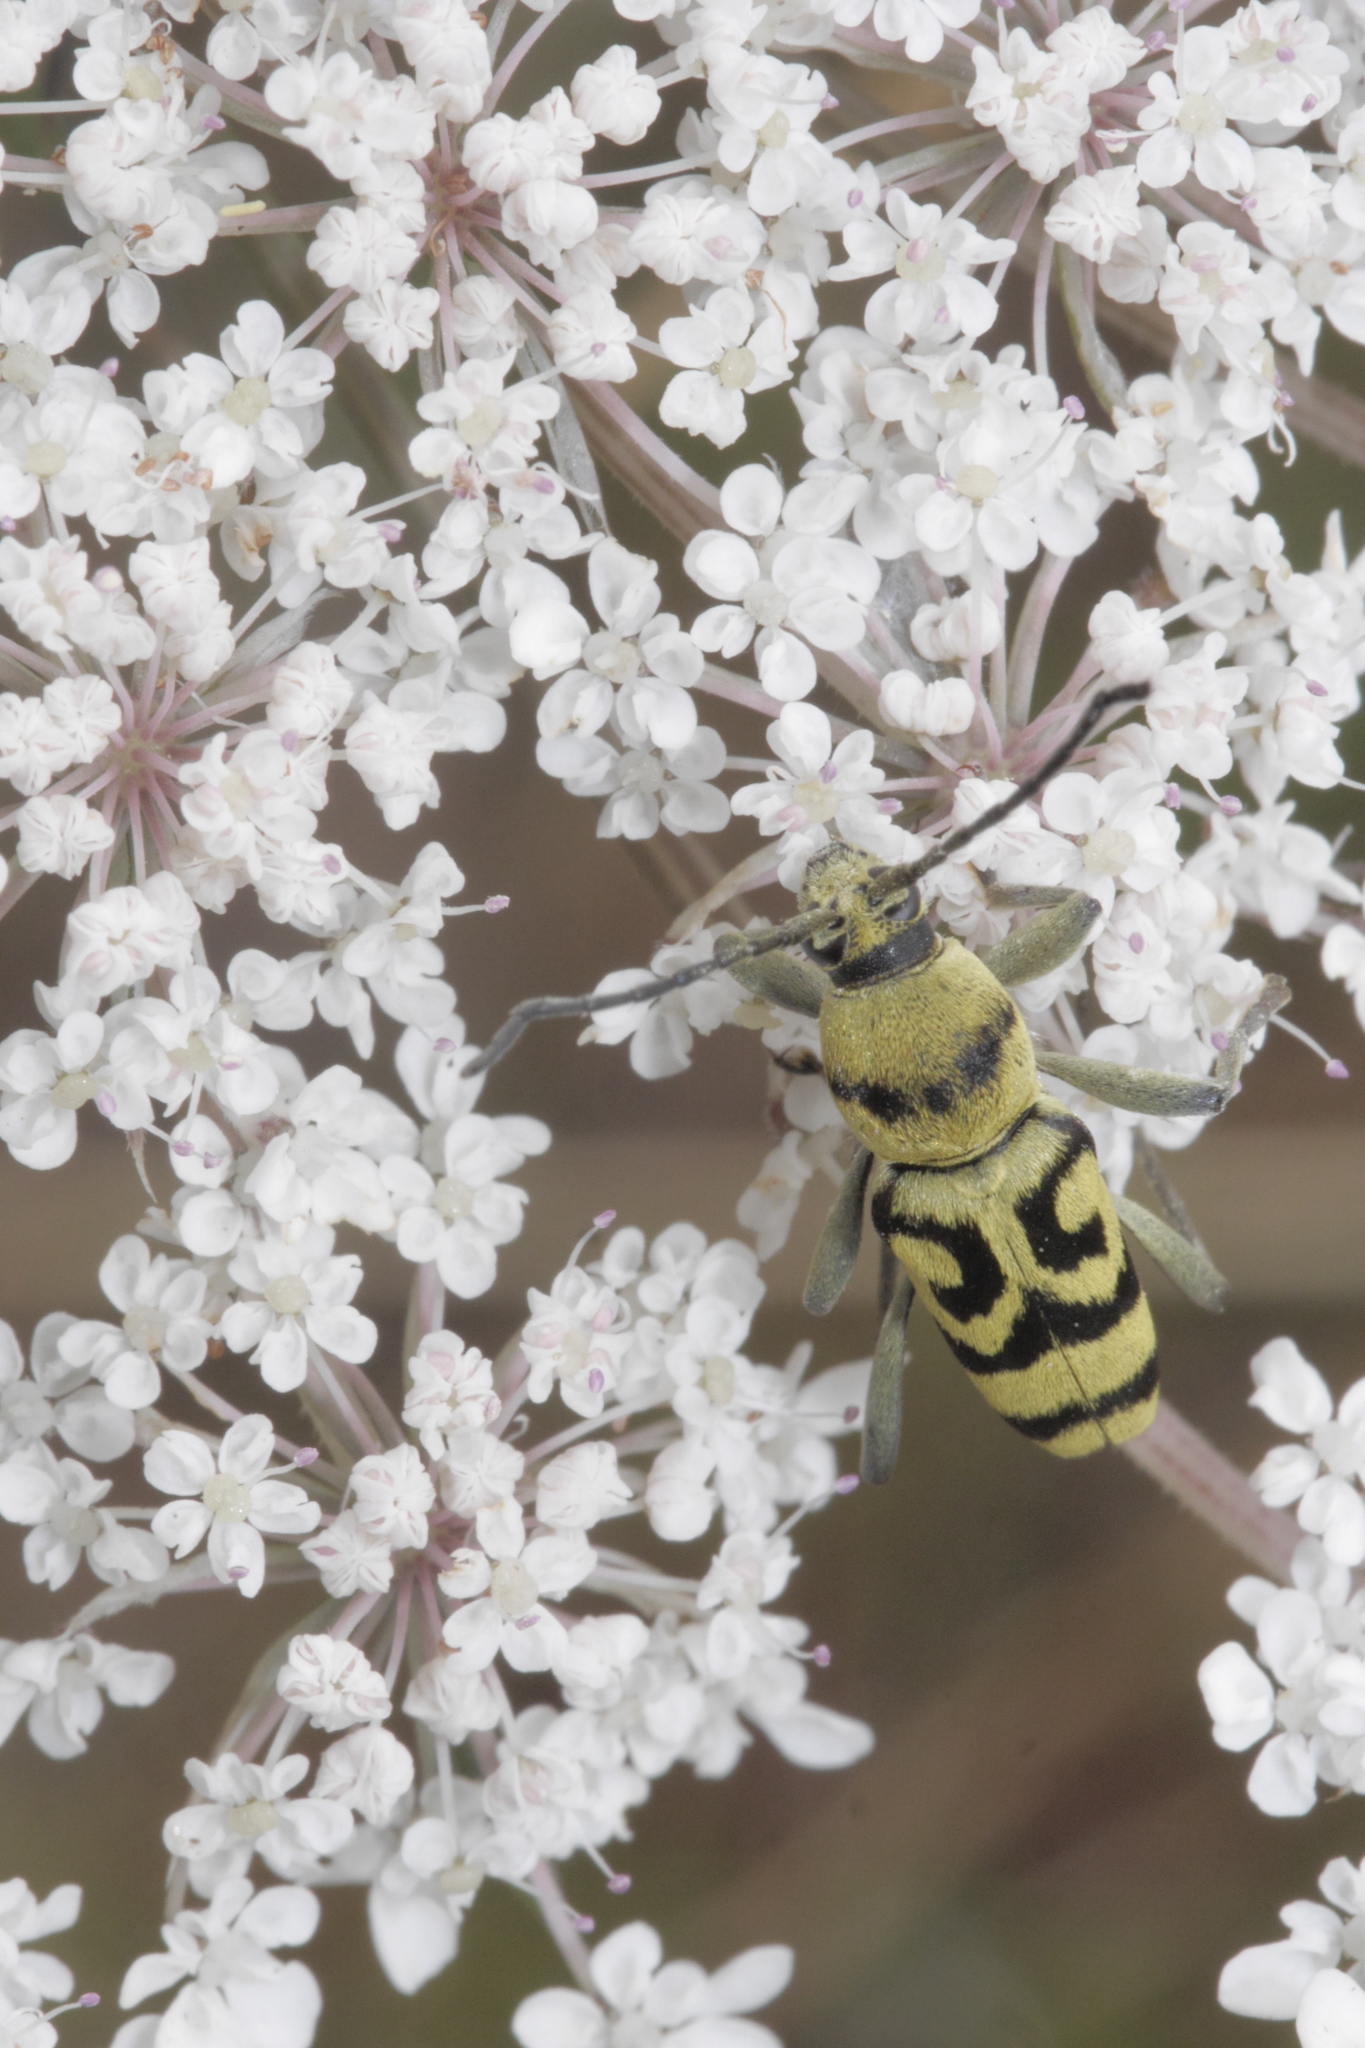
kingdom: Animalia
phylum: Arthropoda
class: Insecta
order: Coleoptera
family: Cerambycidae
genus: Chlorophorus
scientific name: Chlorophorus varius
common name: Grape wood borer
